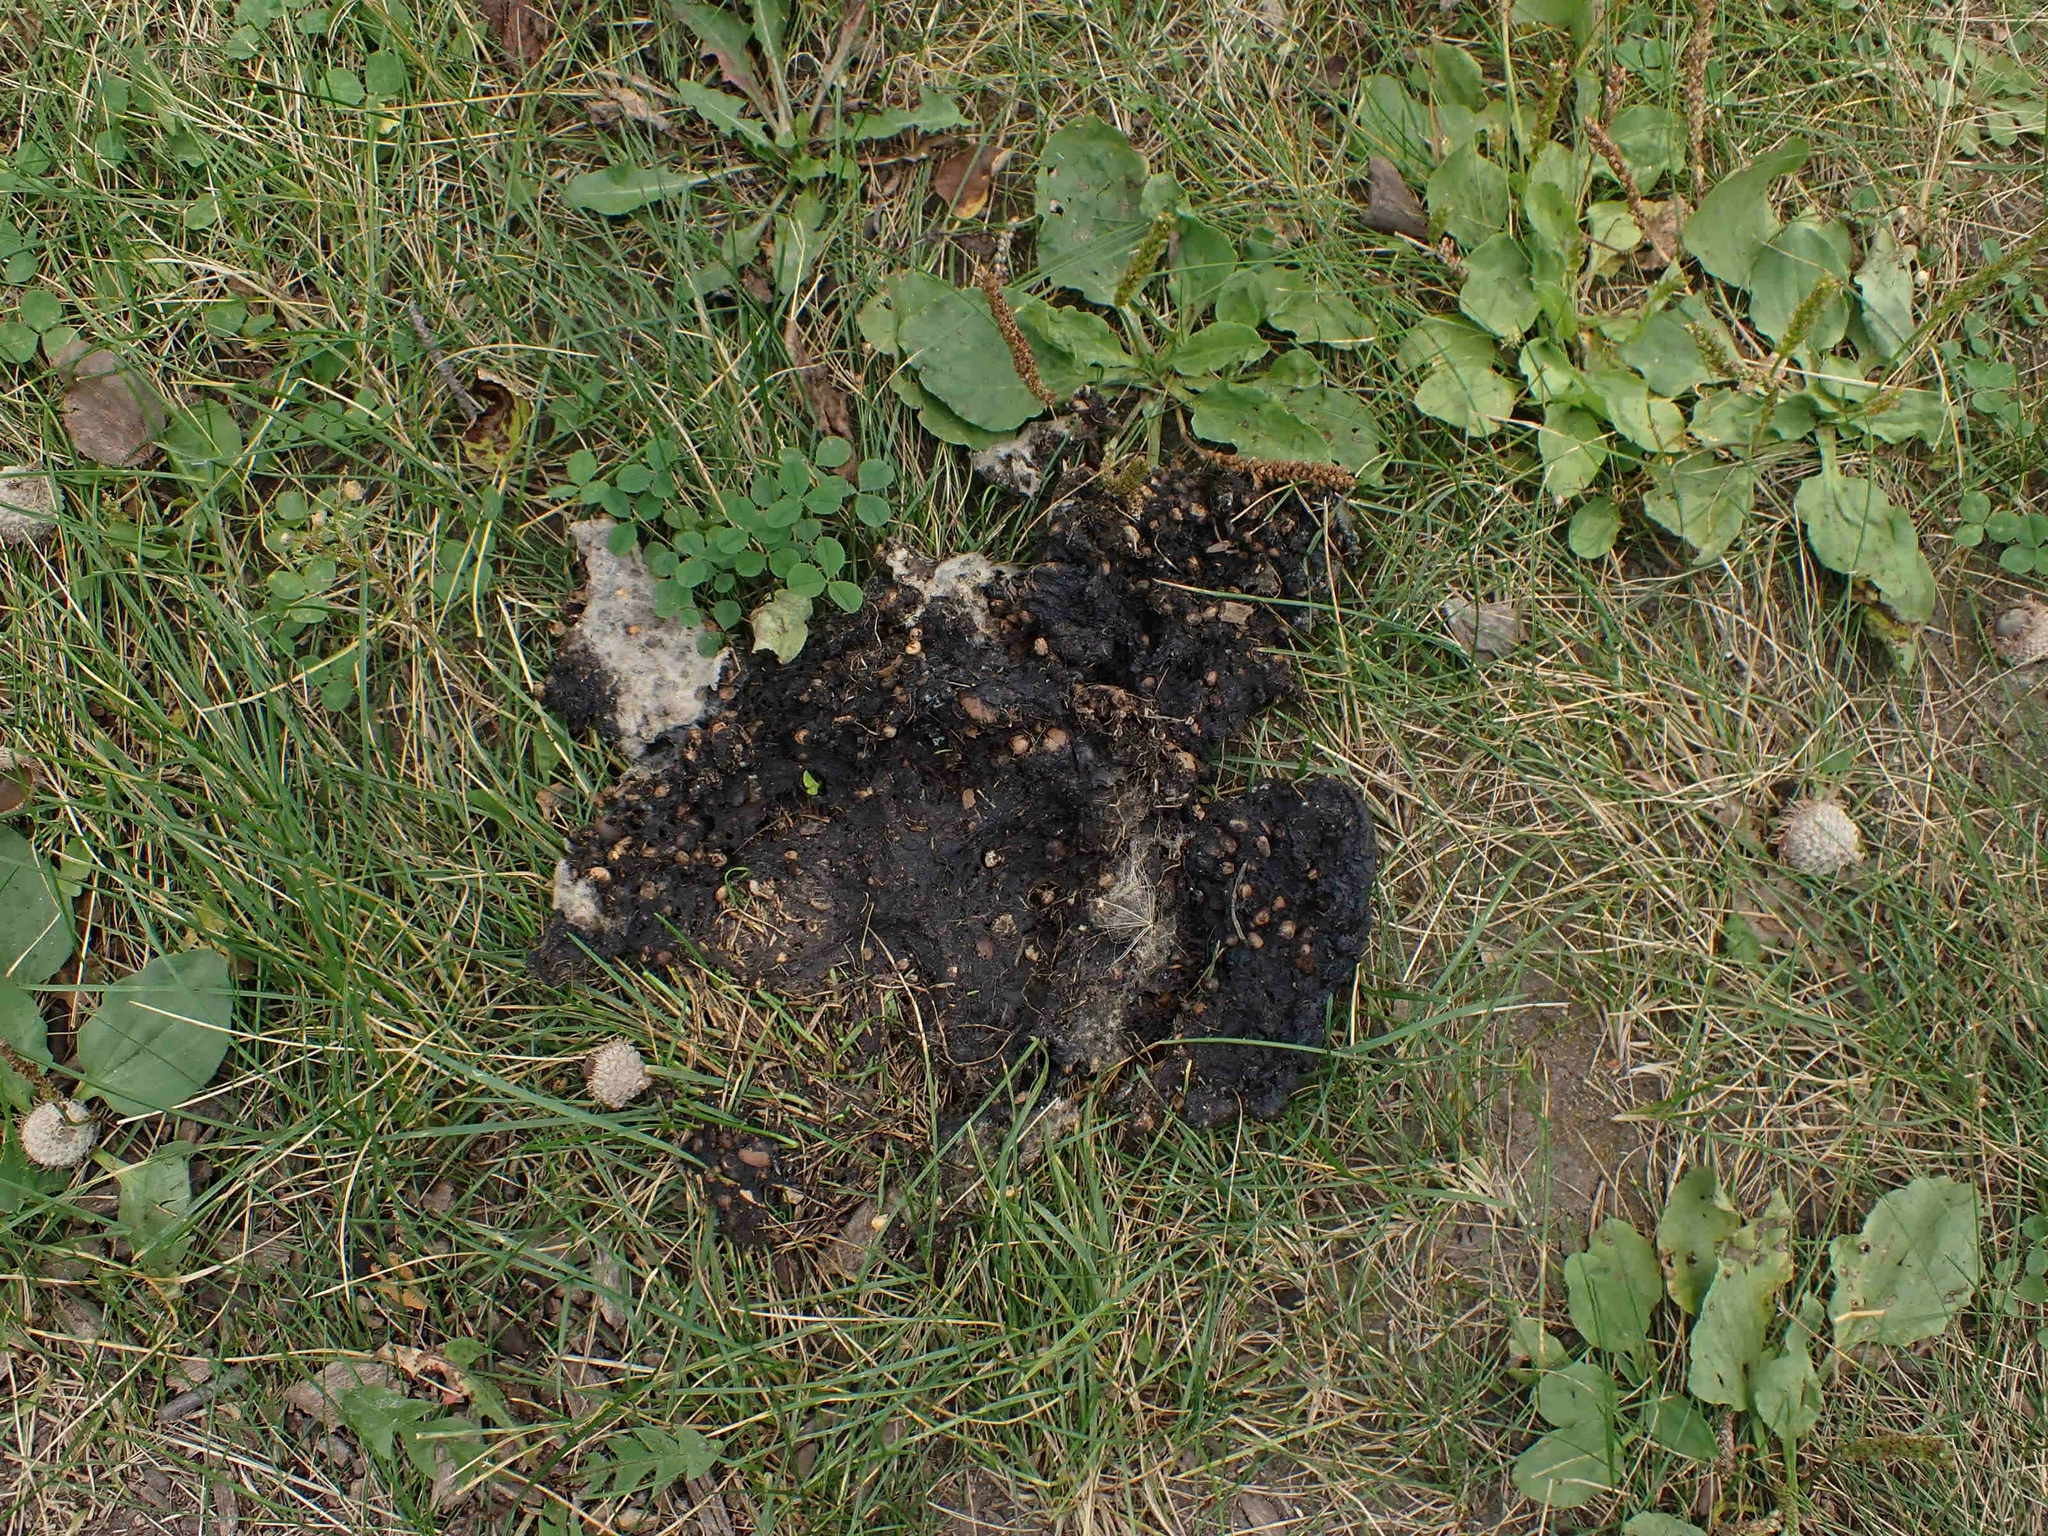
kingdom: Animalia
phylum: Chordata
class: Mammalia
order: Carnivora
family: Ursidae
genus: Ursus
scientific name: Ursus americanus
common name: American black bear
